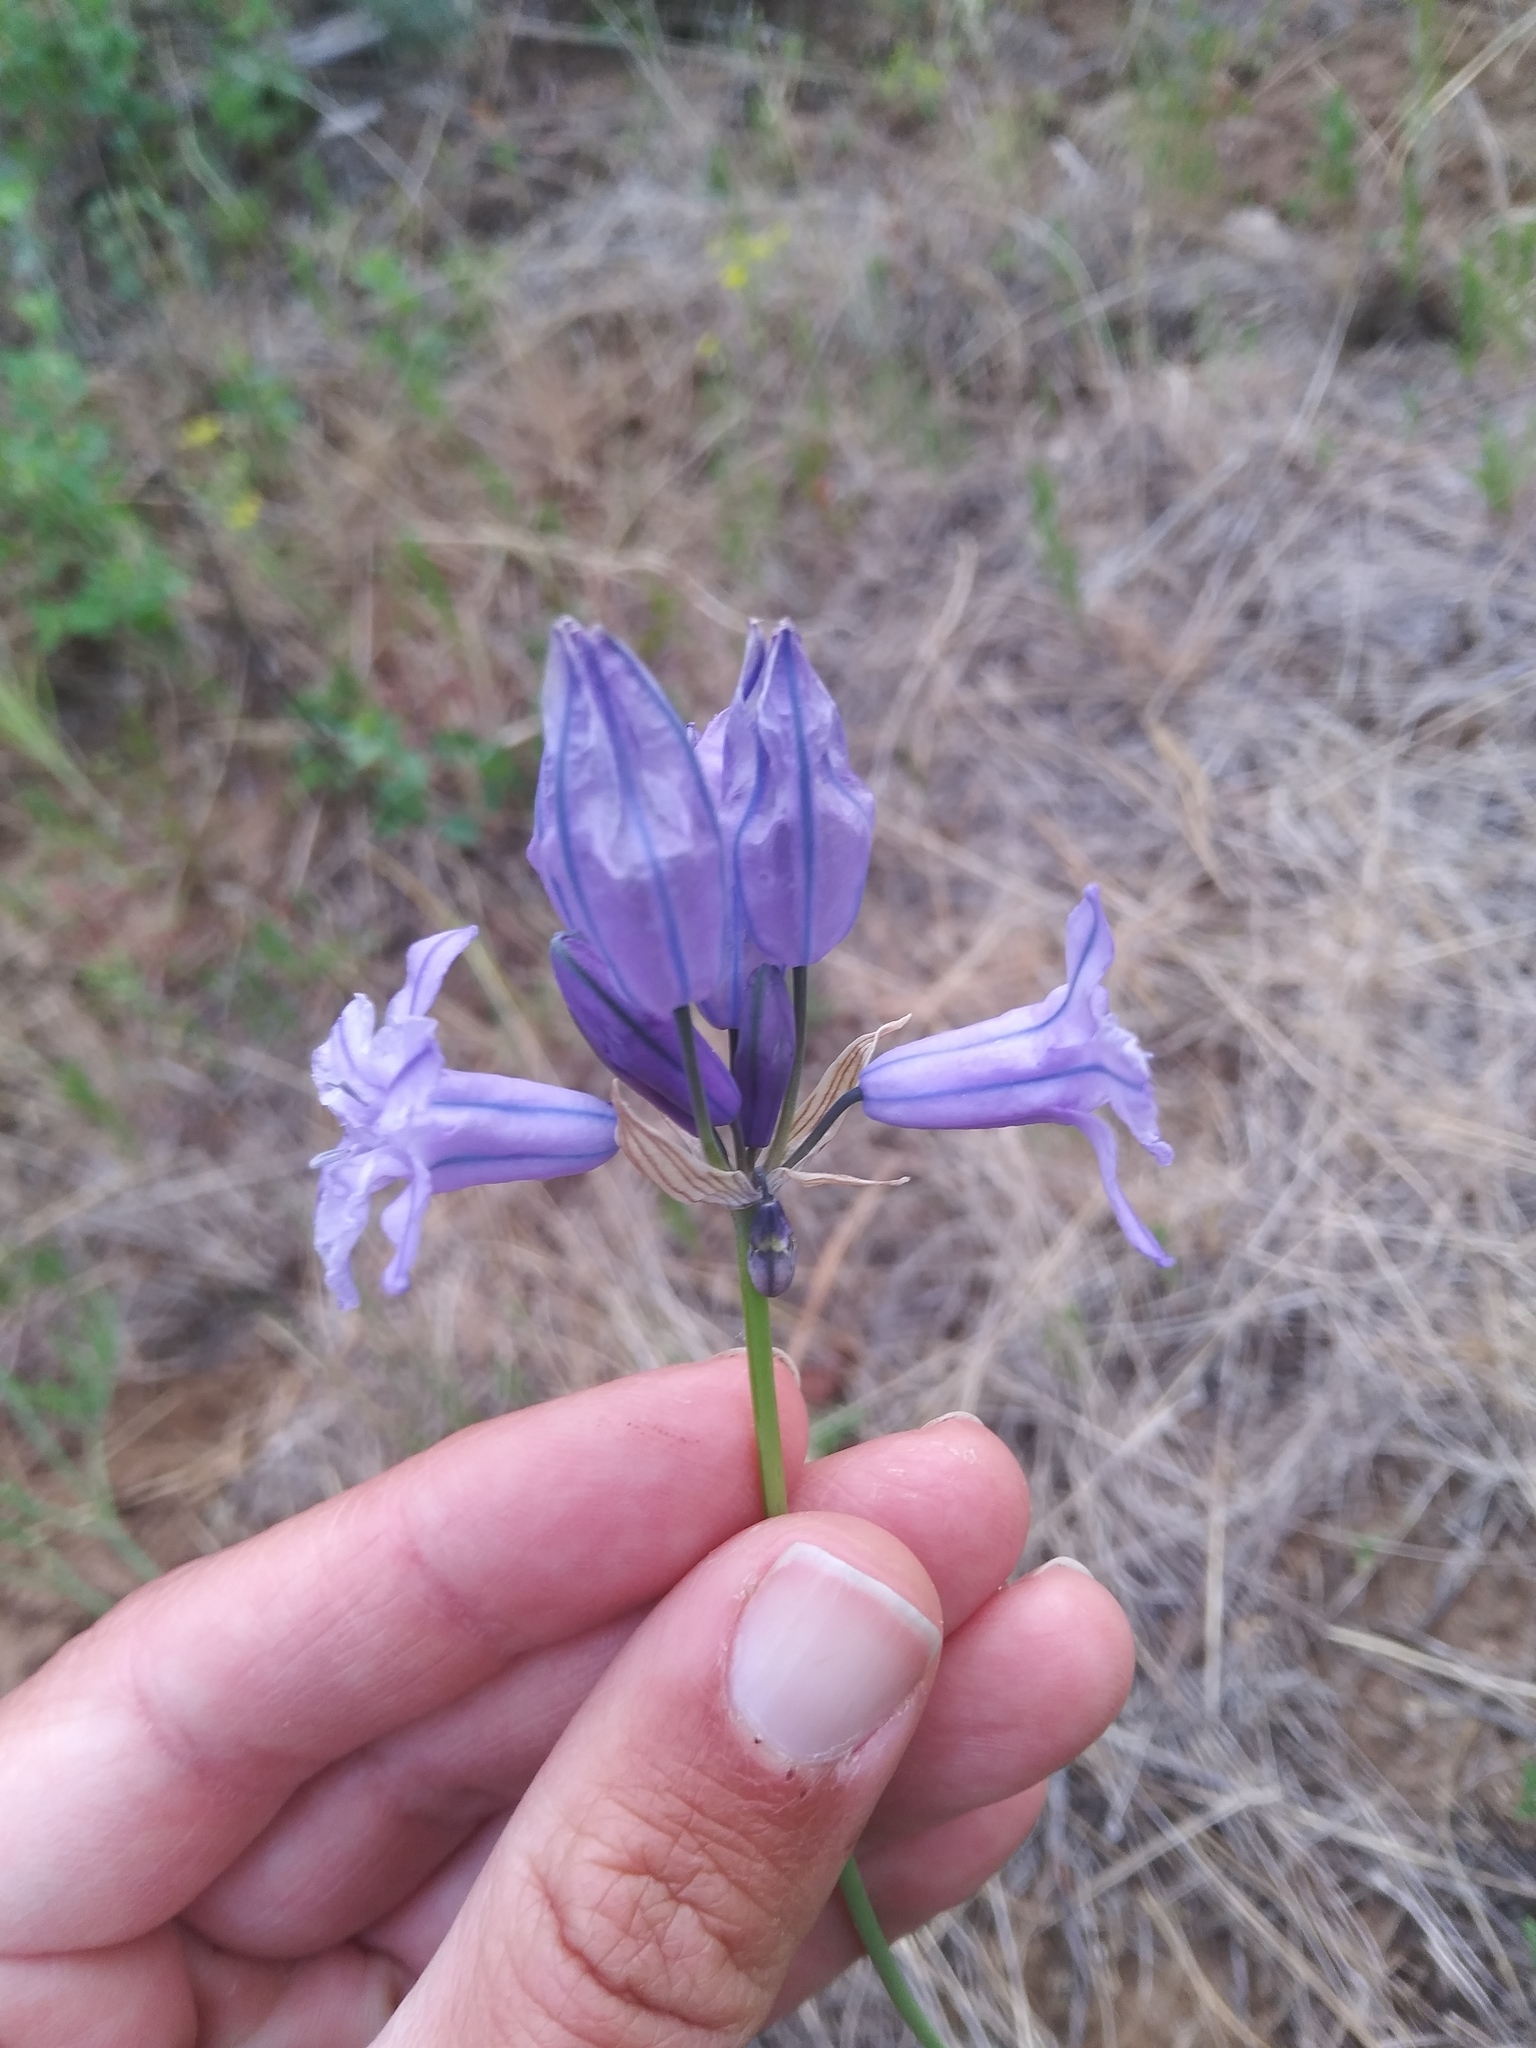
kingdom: Plantae
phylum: Tracheophyta
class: Liliopsida
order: Asparagales
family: Asparagaceae
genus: Triteleia
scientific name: Triteleia grandiflora
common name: Wild hyacinth
